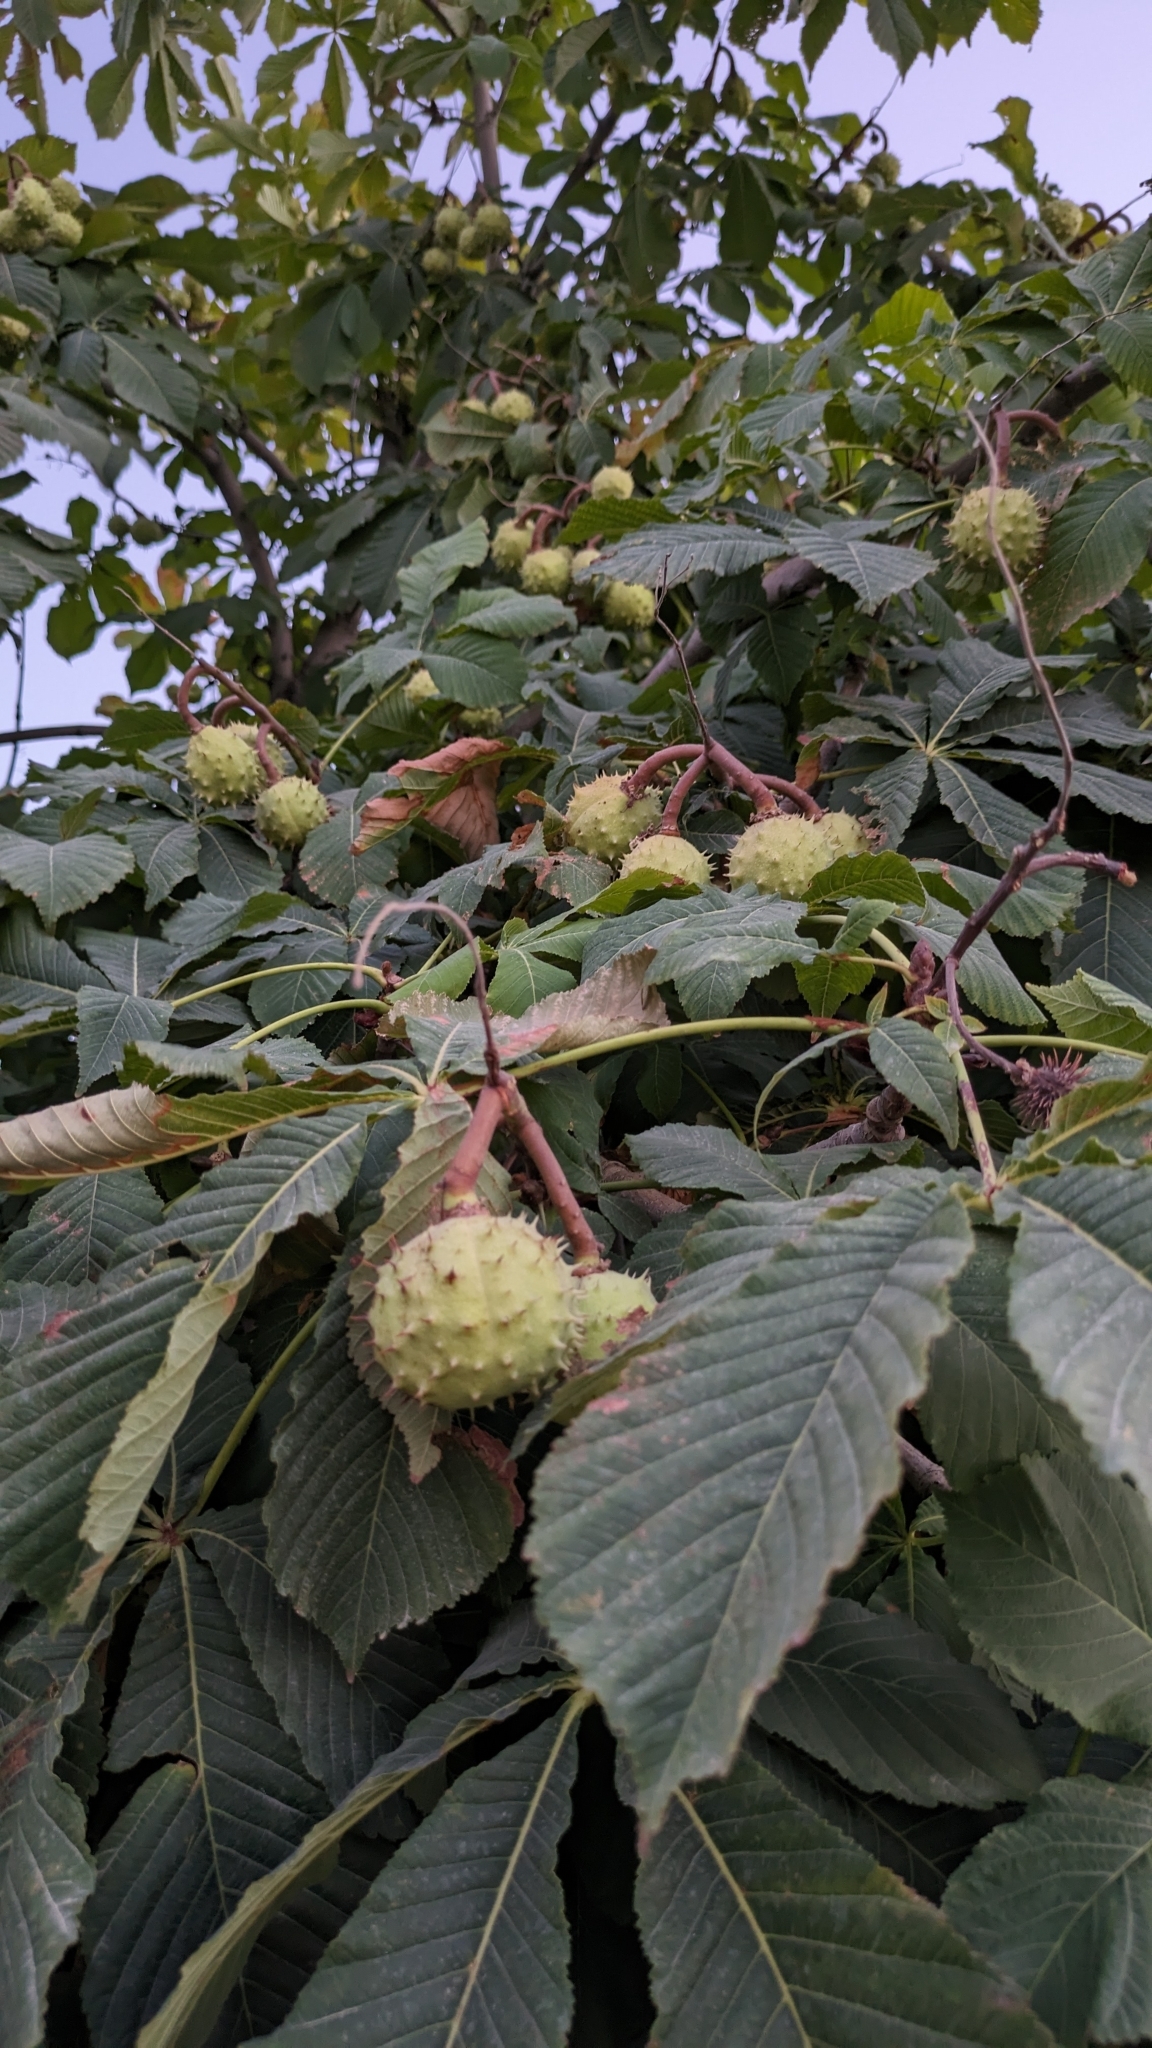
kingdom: Plantae
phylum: Tracheophyta
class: Magnoliopsida
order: Sapindales
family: Sapindaceae
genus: Aesculus
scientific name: Aesculus hippocastanum
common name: Horse-chestnut
